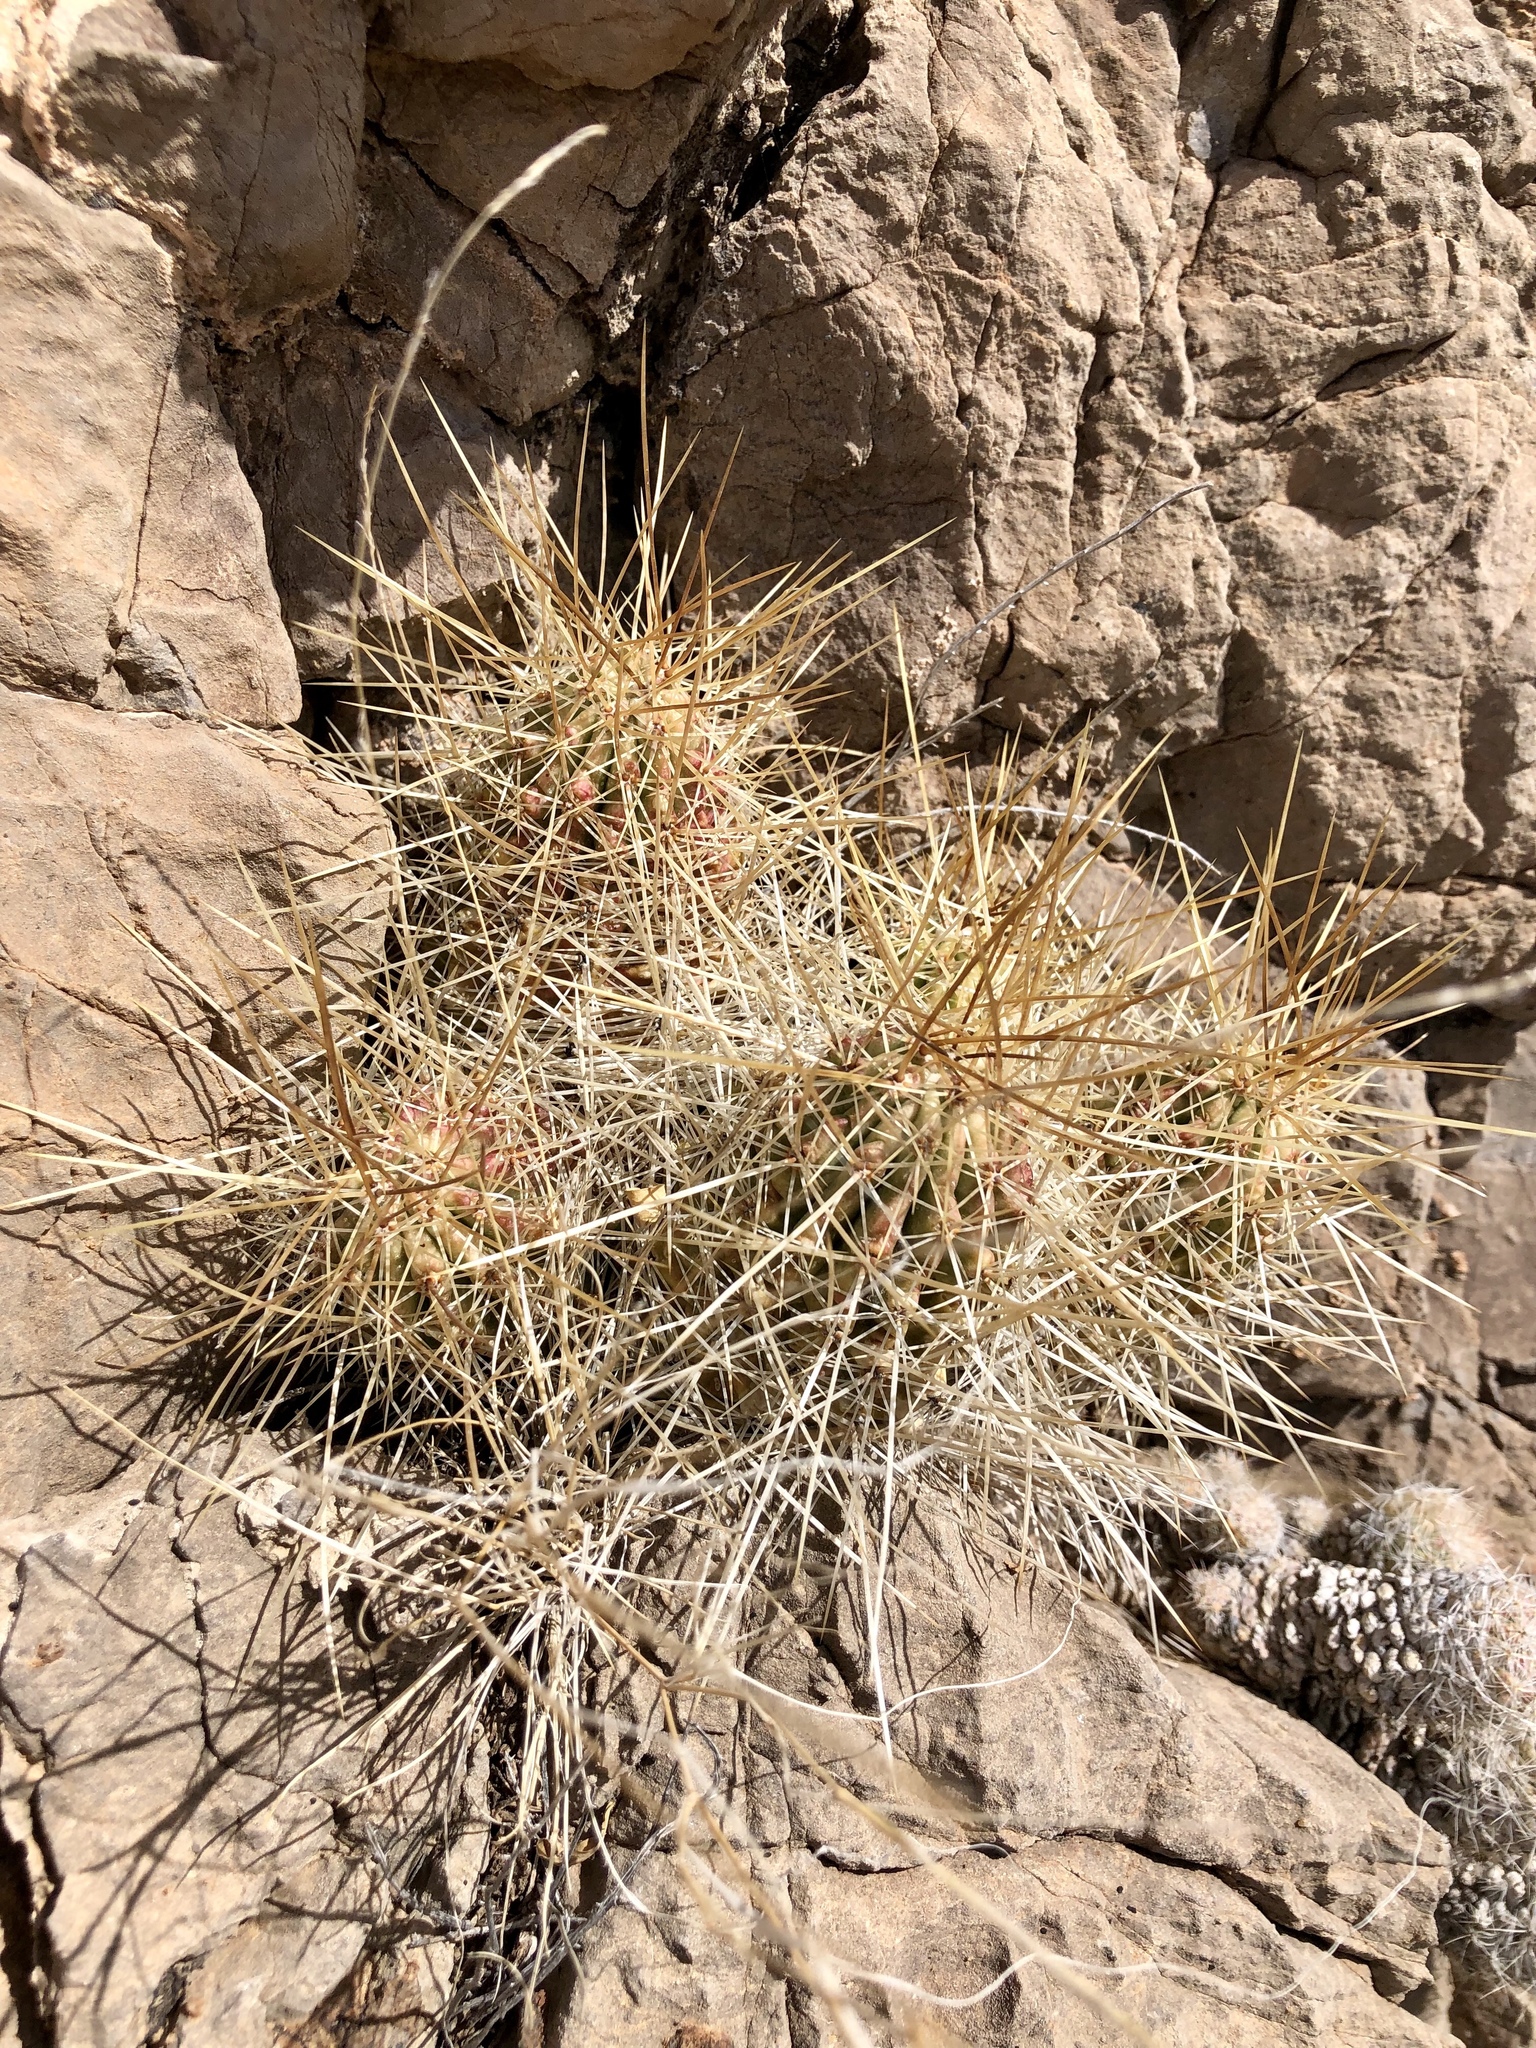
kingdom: Plantae
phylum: Tracheophyta
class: Magnoliopsida
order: Caryophyllales
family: Cactaceae
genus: Echinocereus
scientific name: Echinocereus stramineus
